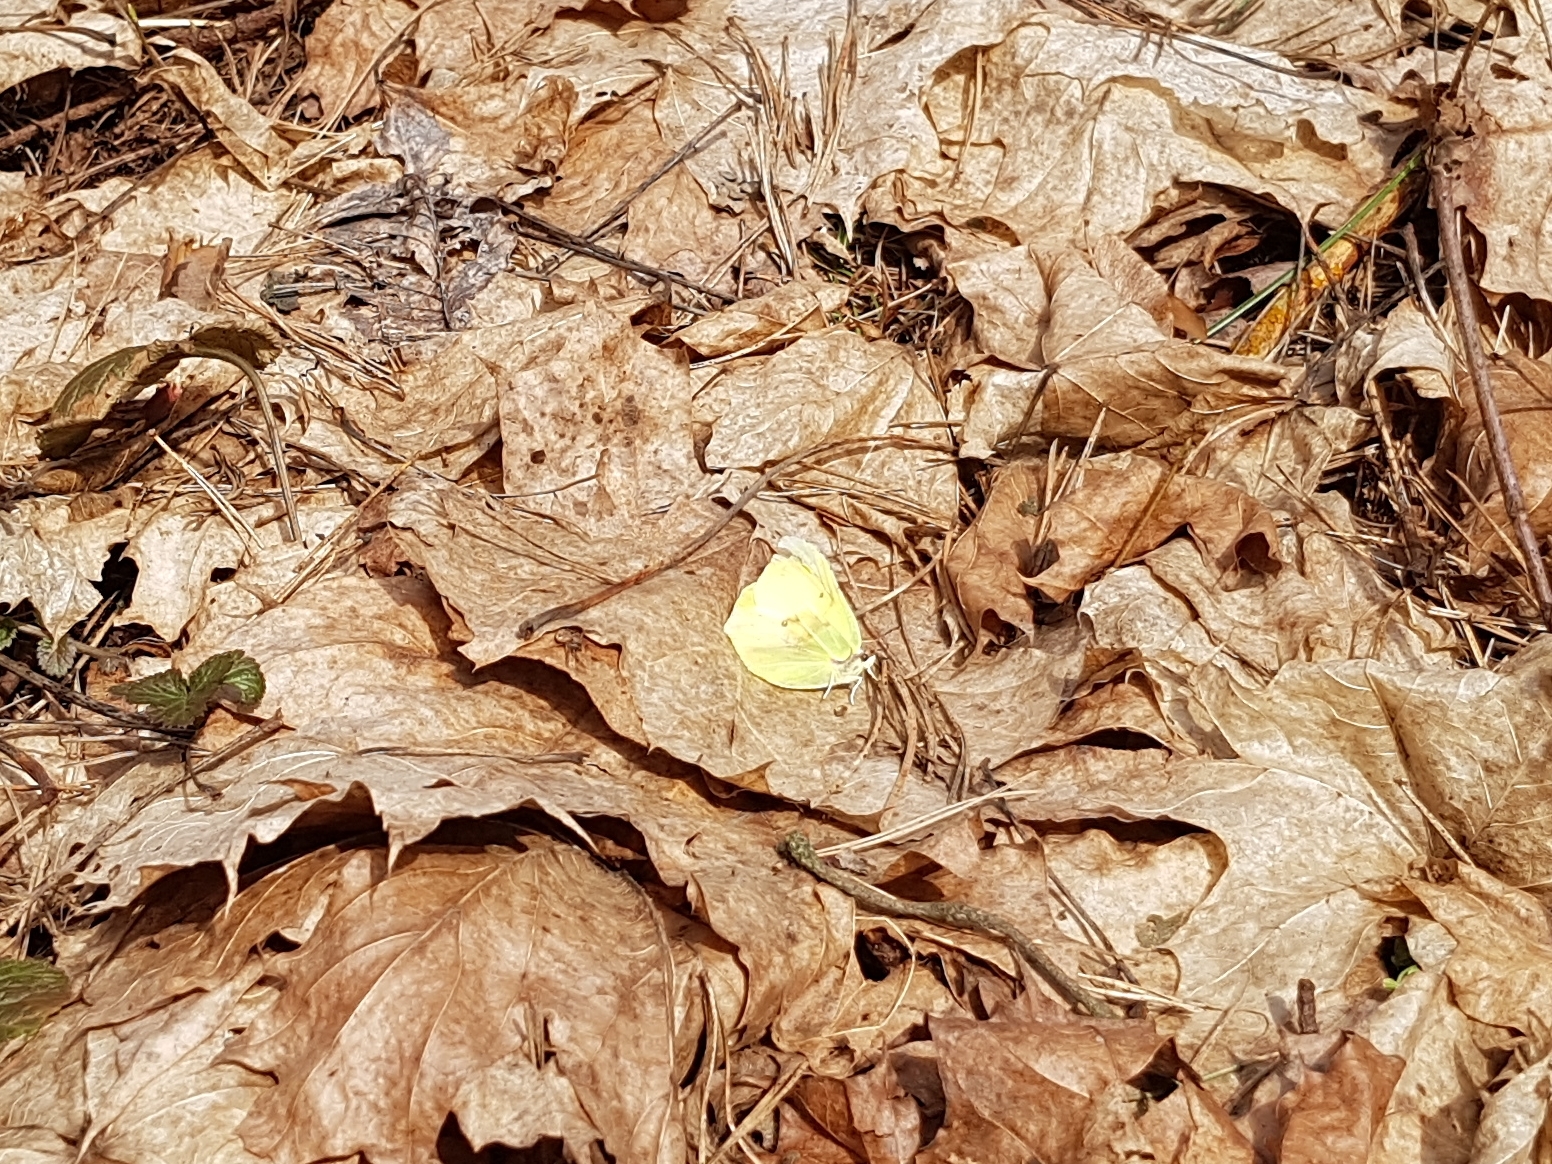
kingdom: Animalia
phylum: Arthropoda
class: Insecta
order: Lepidoptera
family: Pieridae
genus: Gonepteryx
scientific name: Gonepteryx rhamni
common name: Brimstone
